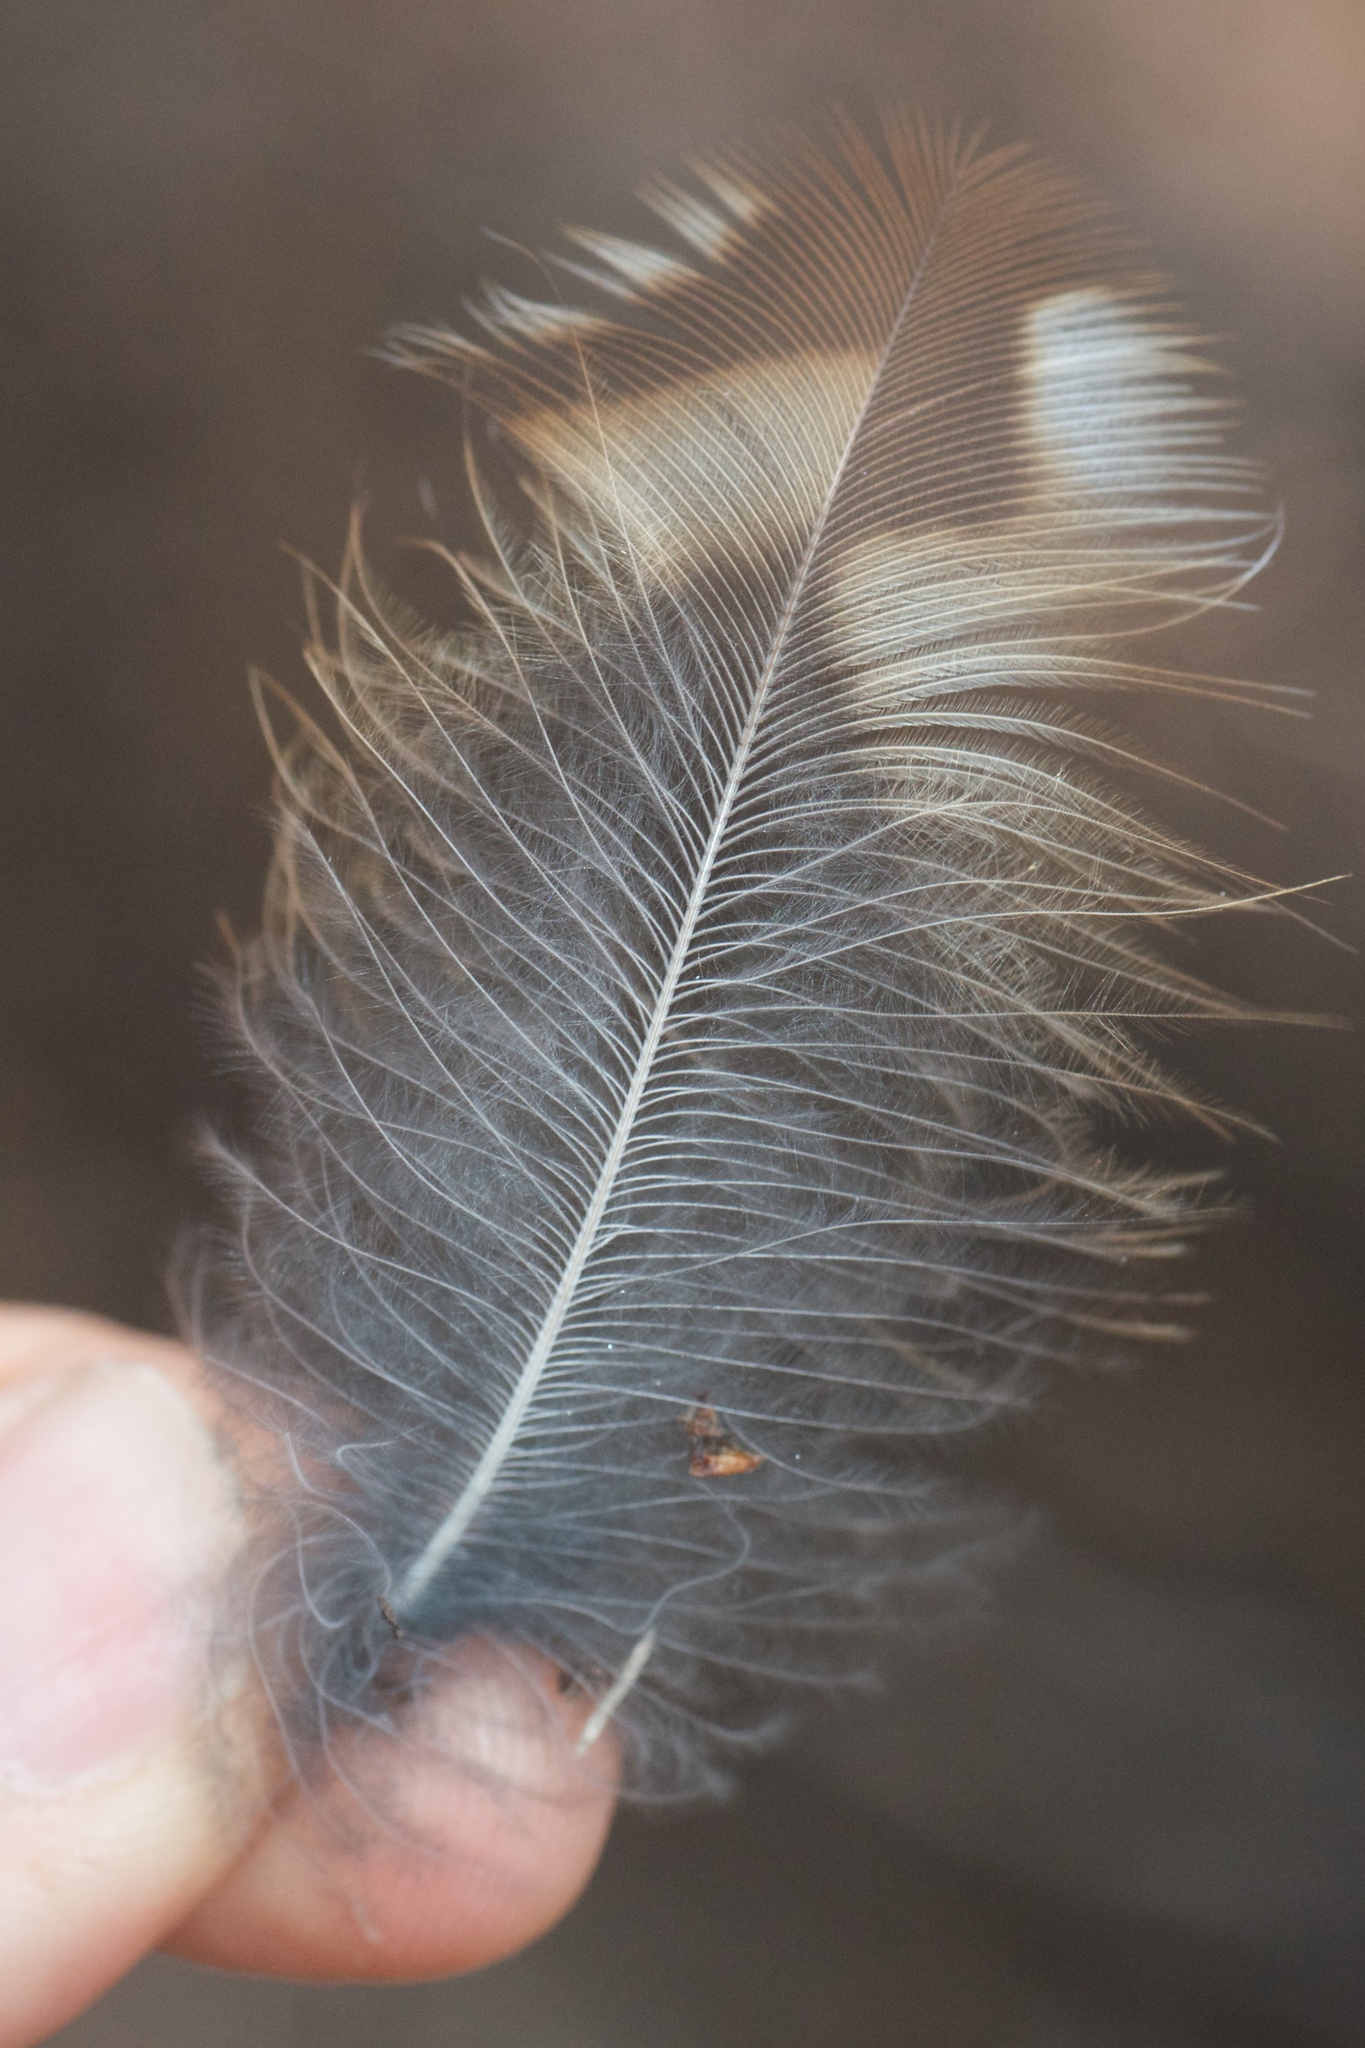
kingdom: Animalia
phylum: Chordata
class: Aves
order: Strigiformes
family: Strigidae
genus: Ninox
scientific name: Ninox novaeseelandiae
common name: Morepork
